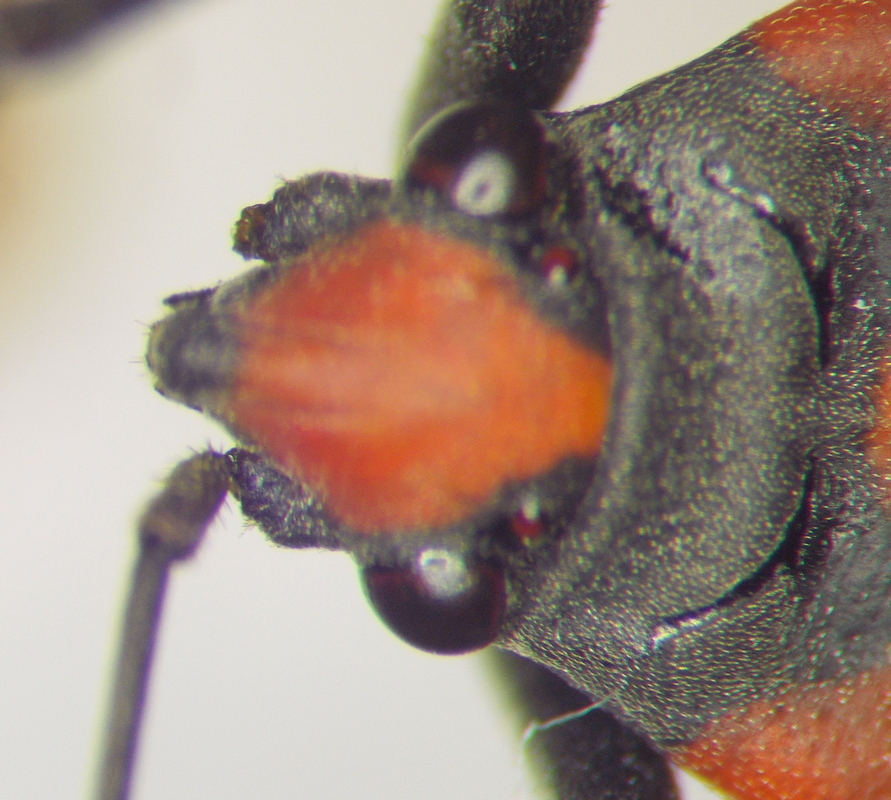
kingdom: Animalia
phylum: Arthropoda
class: Insecta
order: Hemiptera
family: Lygaeidae
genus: Lygaeus
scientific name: Lygaeus simulans
